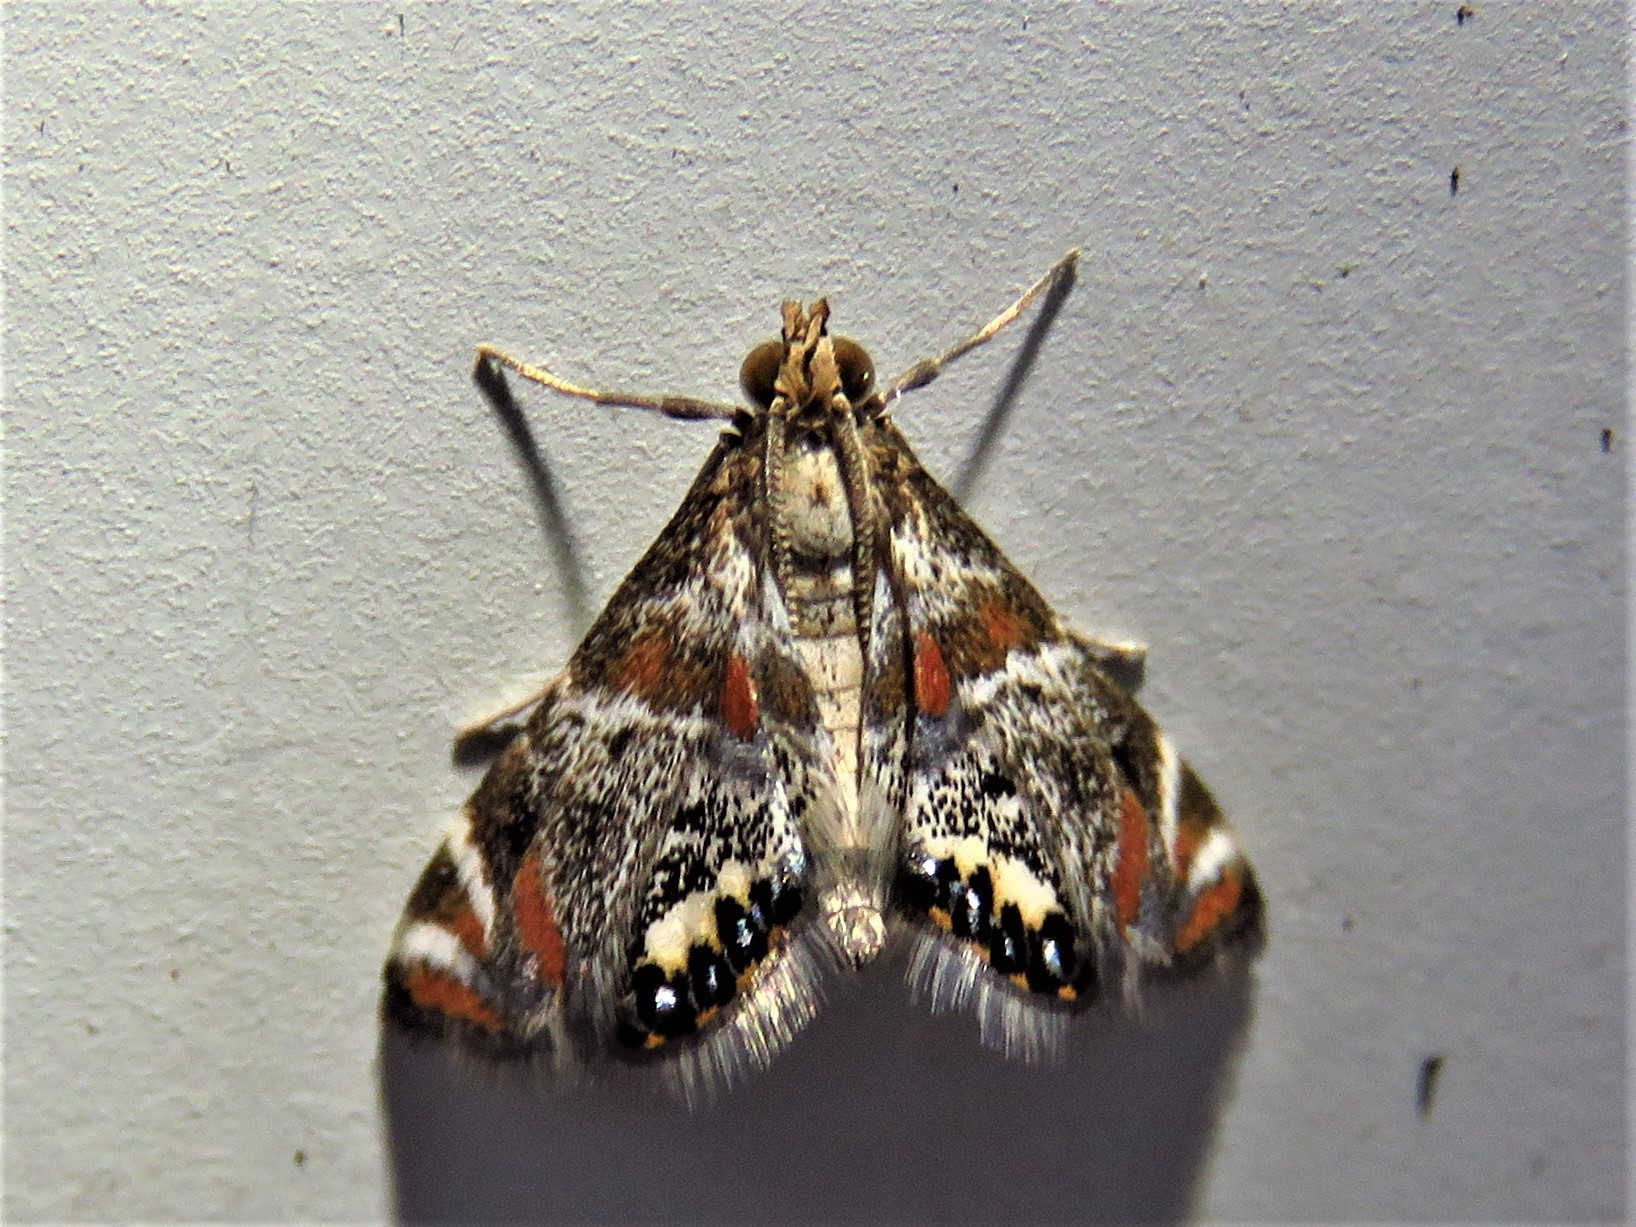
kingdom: Animalia
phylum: Arthropoda
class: Insecta
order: Lepidoptera
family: Crambidae
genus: Petrophila
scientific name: Petrophila jaliscalis
